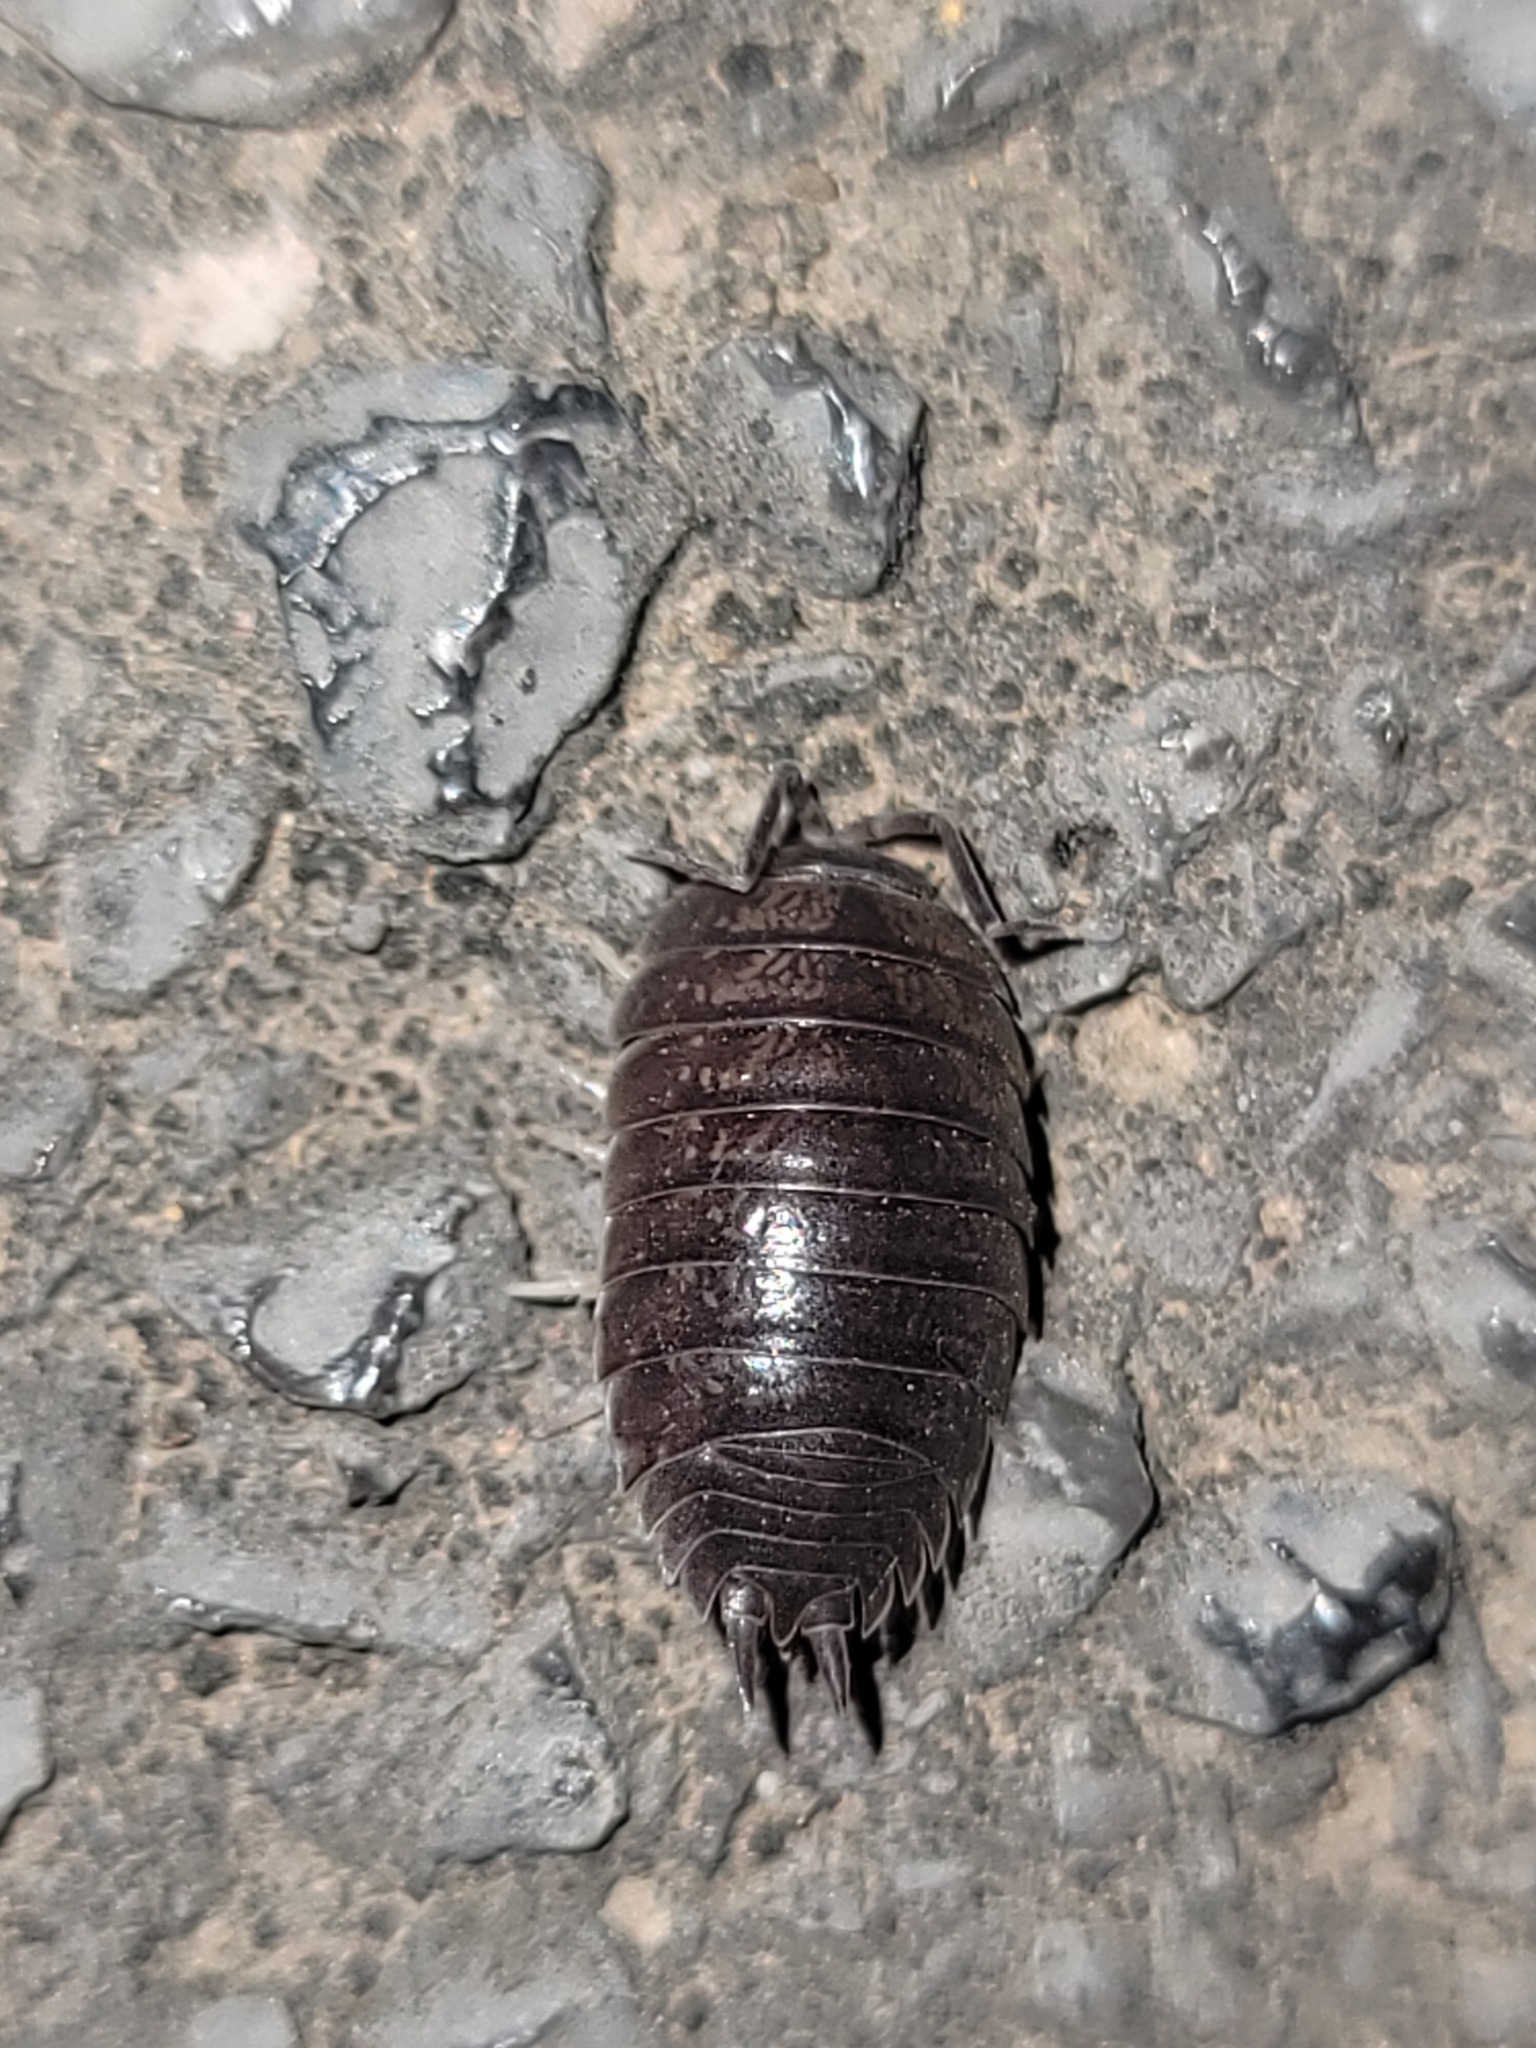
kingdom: Animalia
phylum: Arthropoda
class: Malacostraca
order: Isopoda
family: Porcellionidae
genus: Porcellio
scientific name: Porcellio laevis
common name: Swift woodlouse
